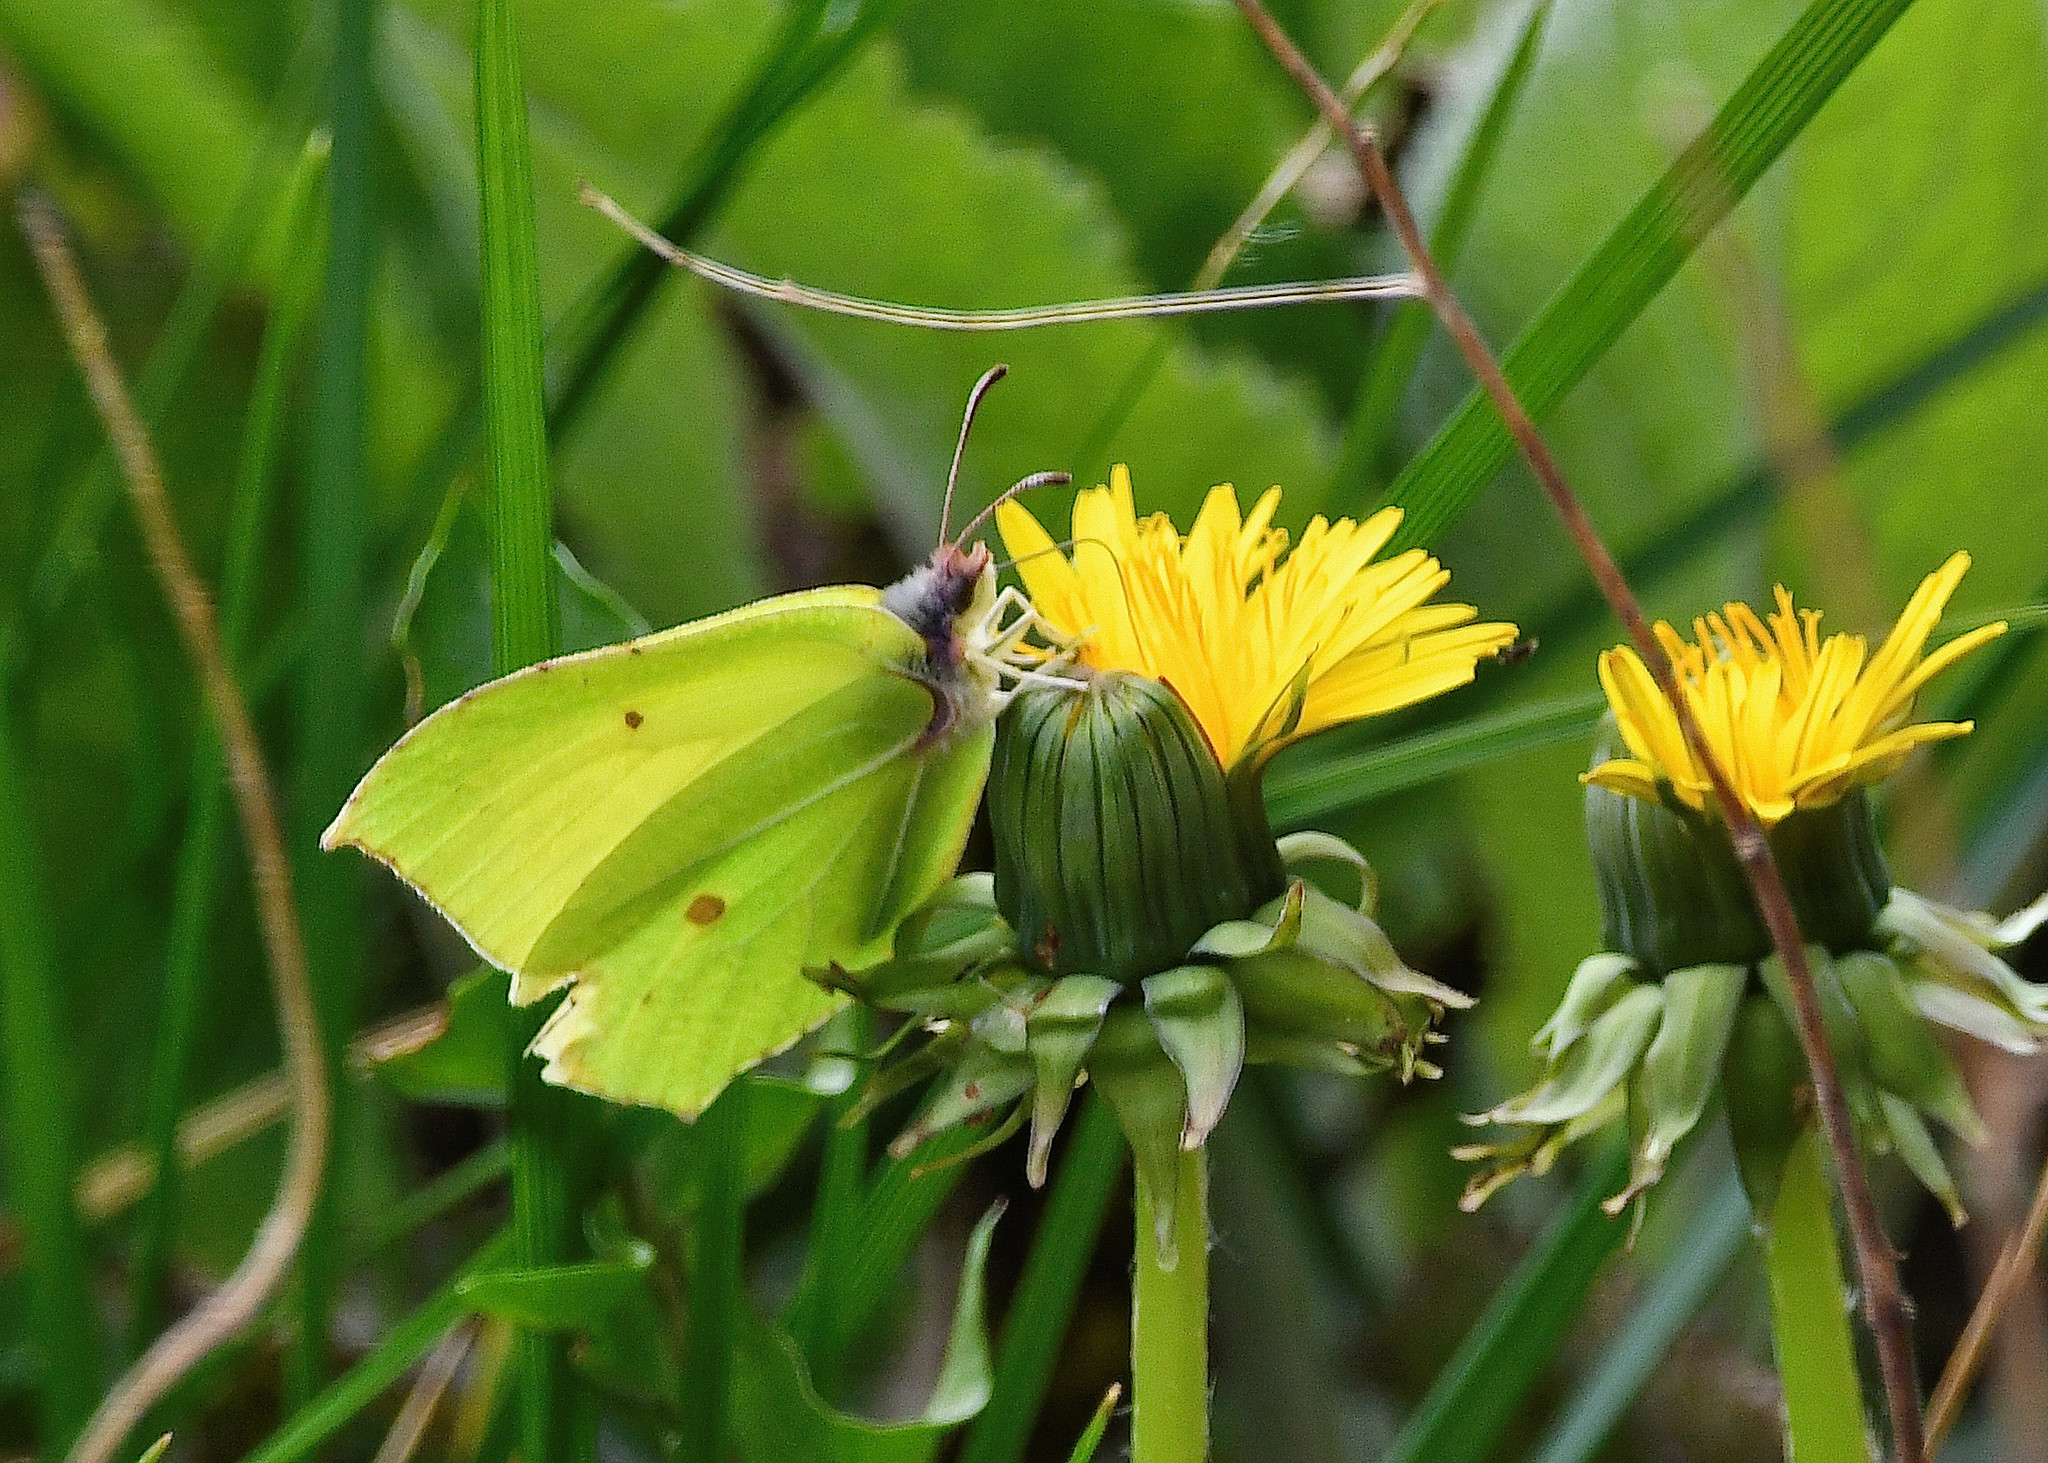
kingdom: Animalia
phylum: Arthropoda
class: Insecta
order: Lepidoptera
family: Pieridae
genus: Gonepteryx
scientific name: Gonepteryx rhamni
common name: Brimstone
